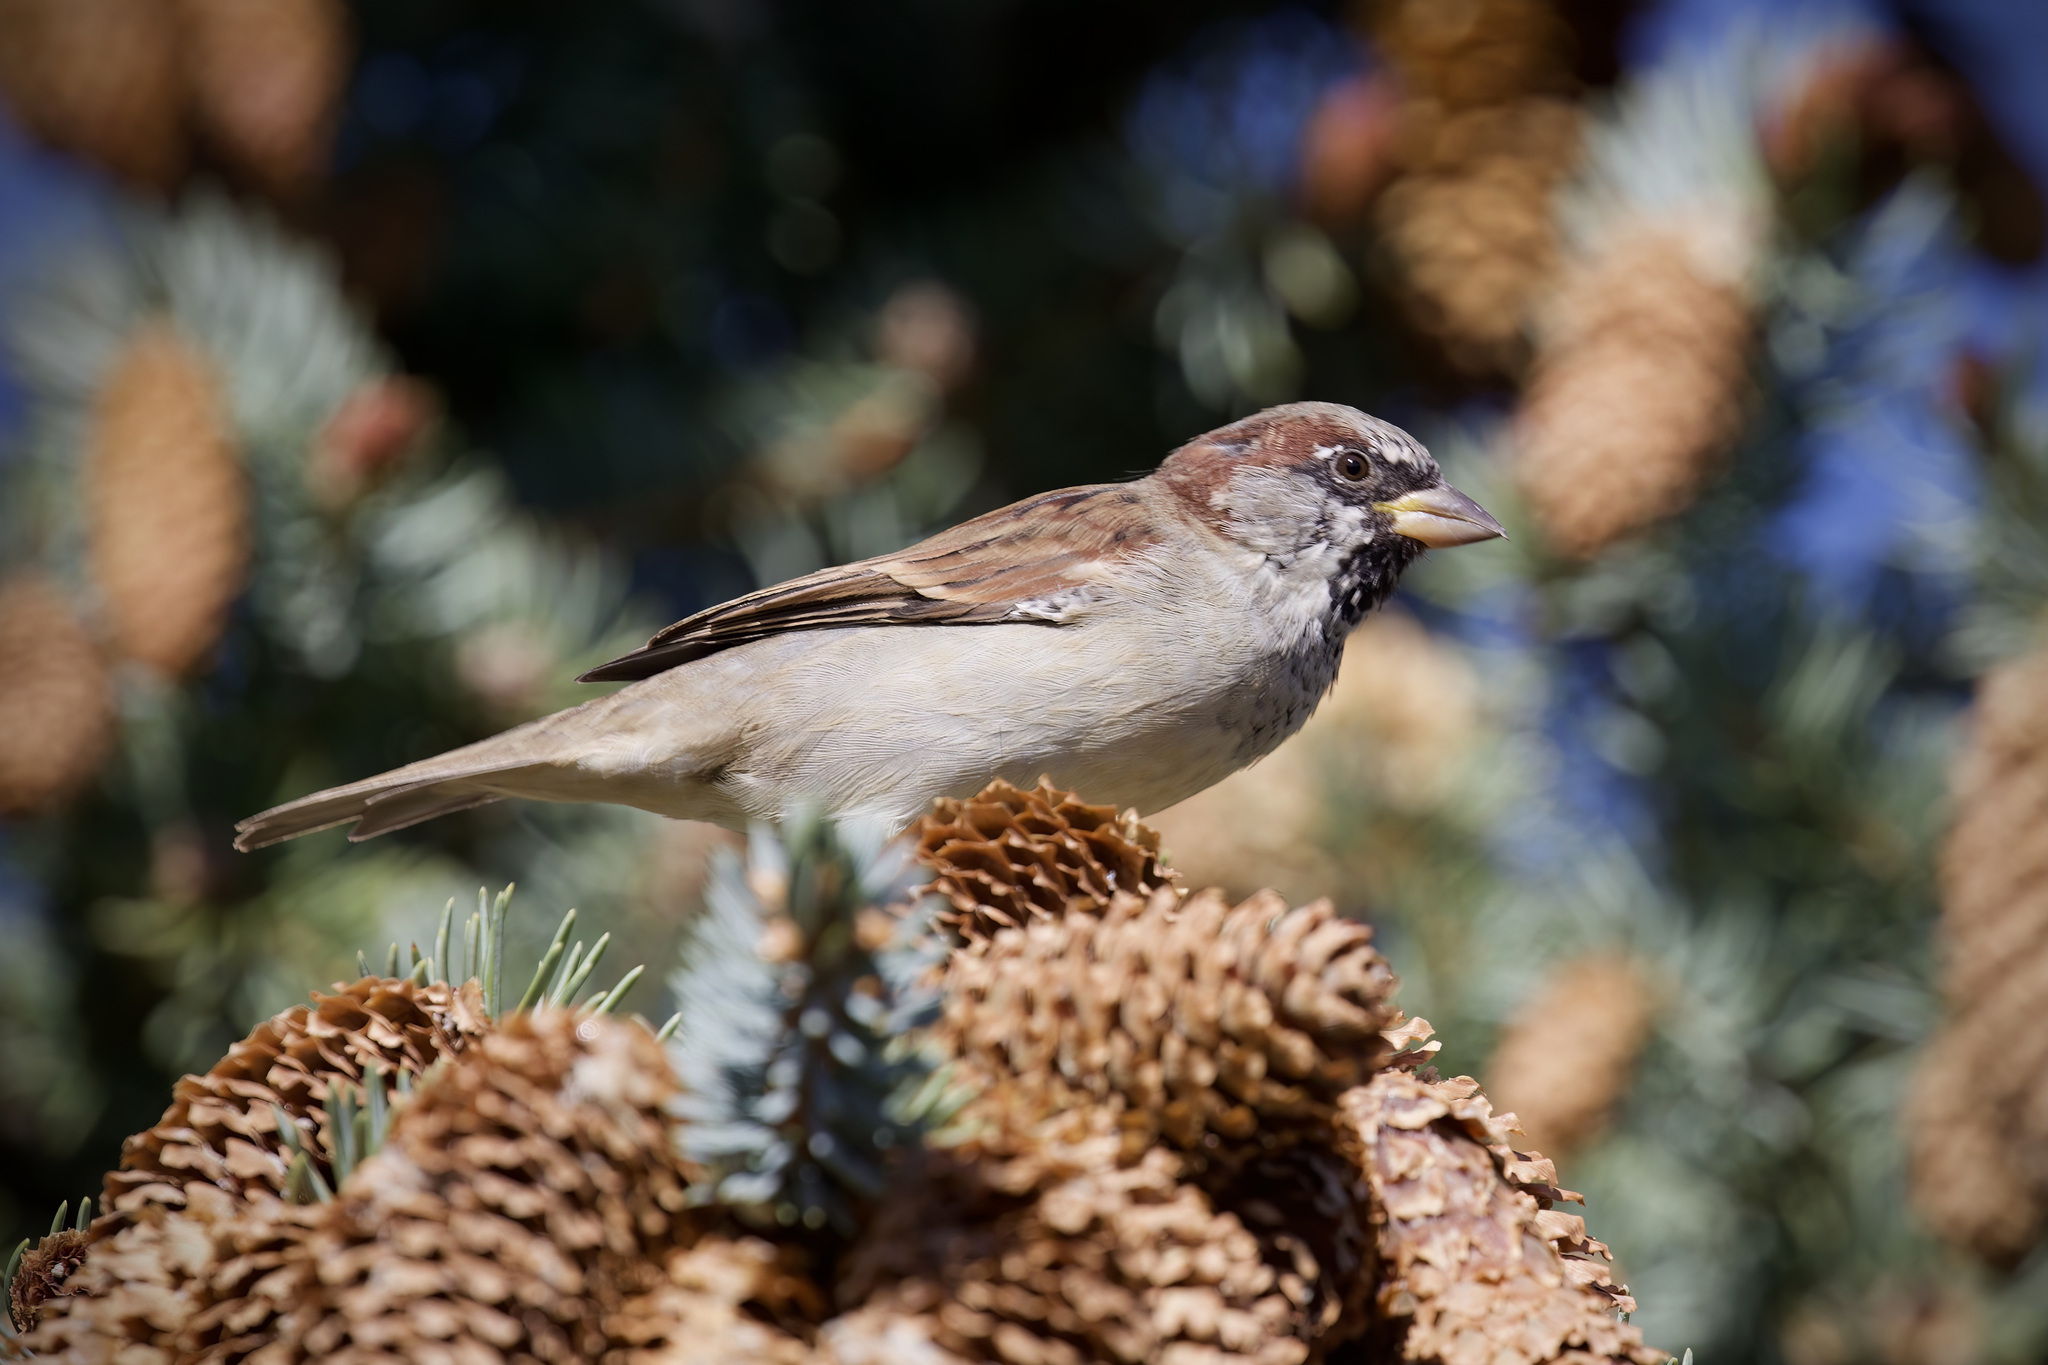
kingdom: Animalia
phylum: Chordata
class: Aves
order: Passeriformes
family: Passeridae
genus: Passer
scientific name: Passer domesticus
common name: House sparrow
